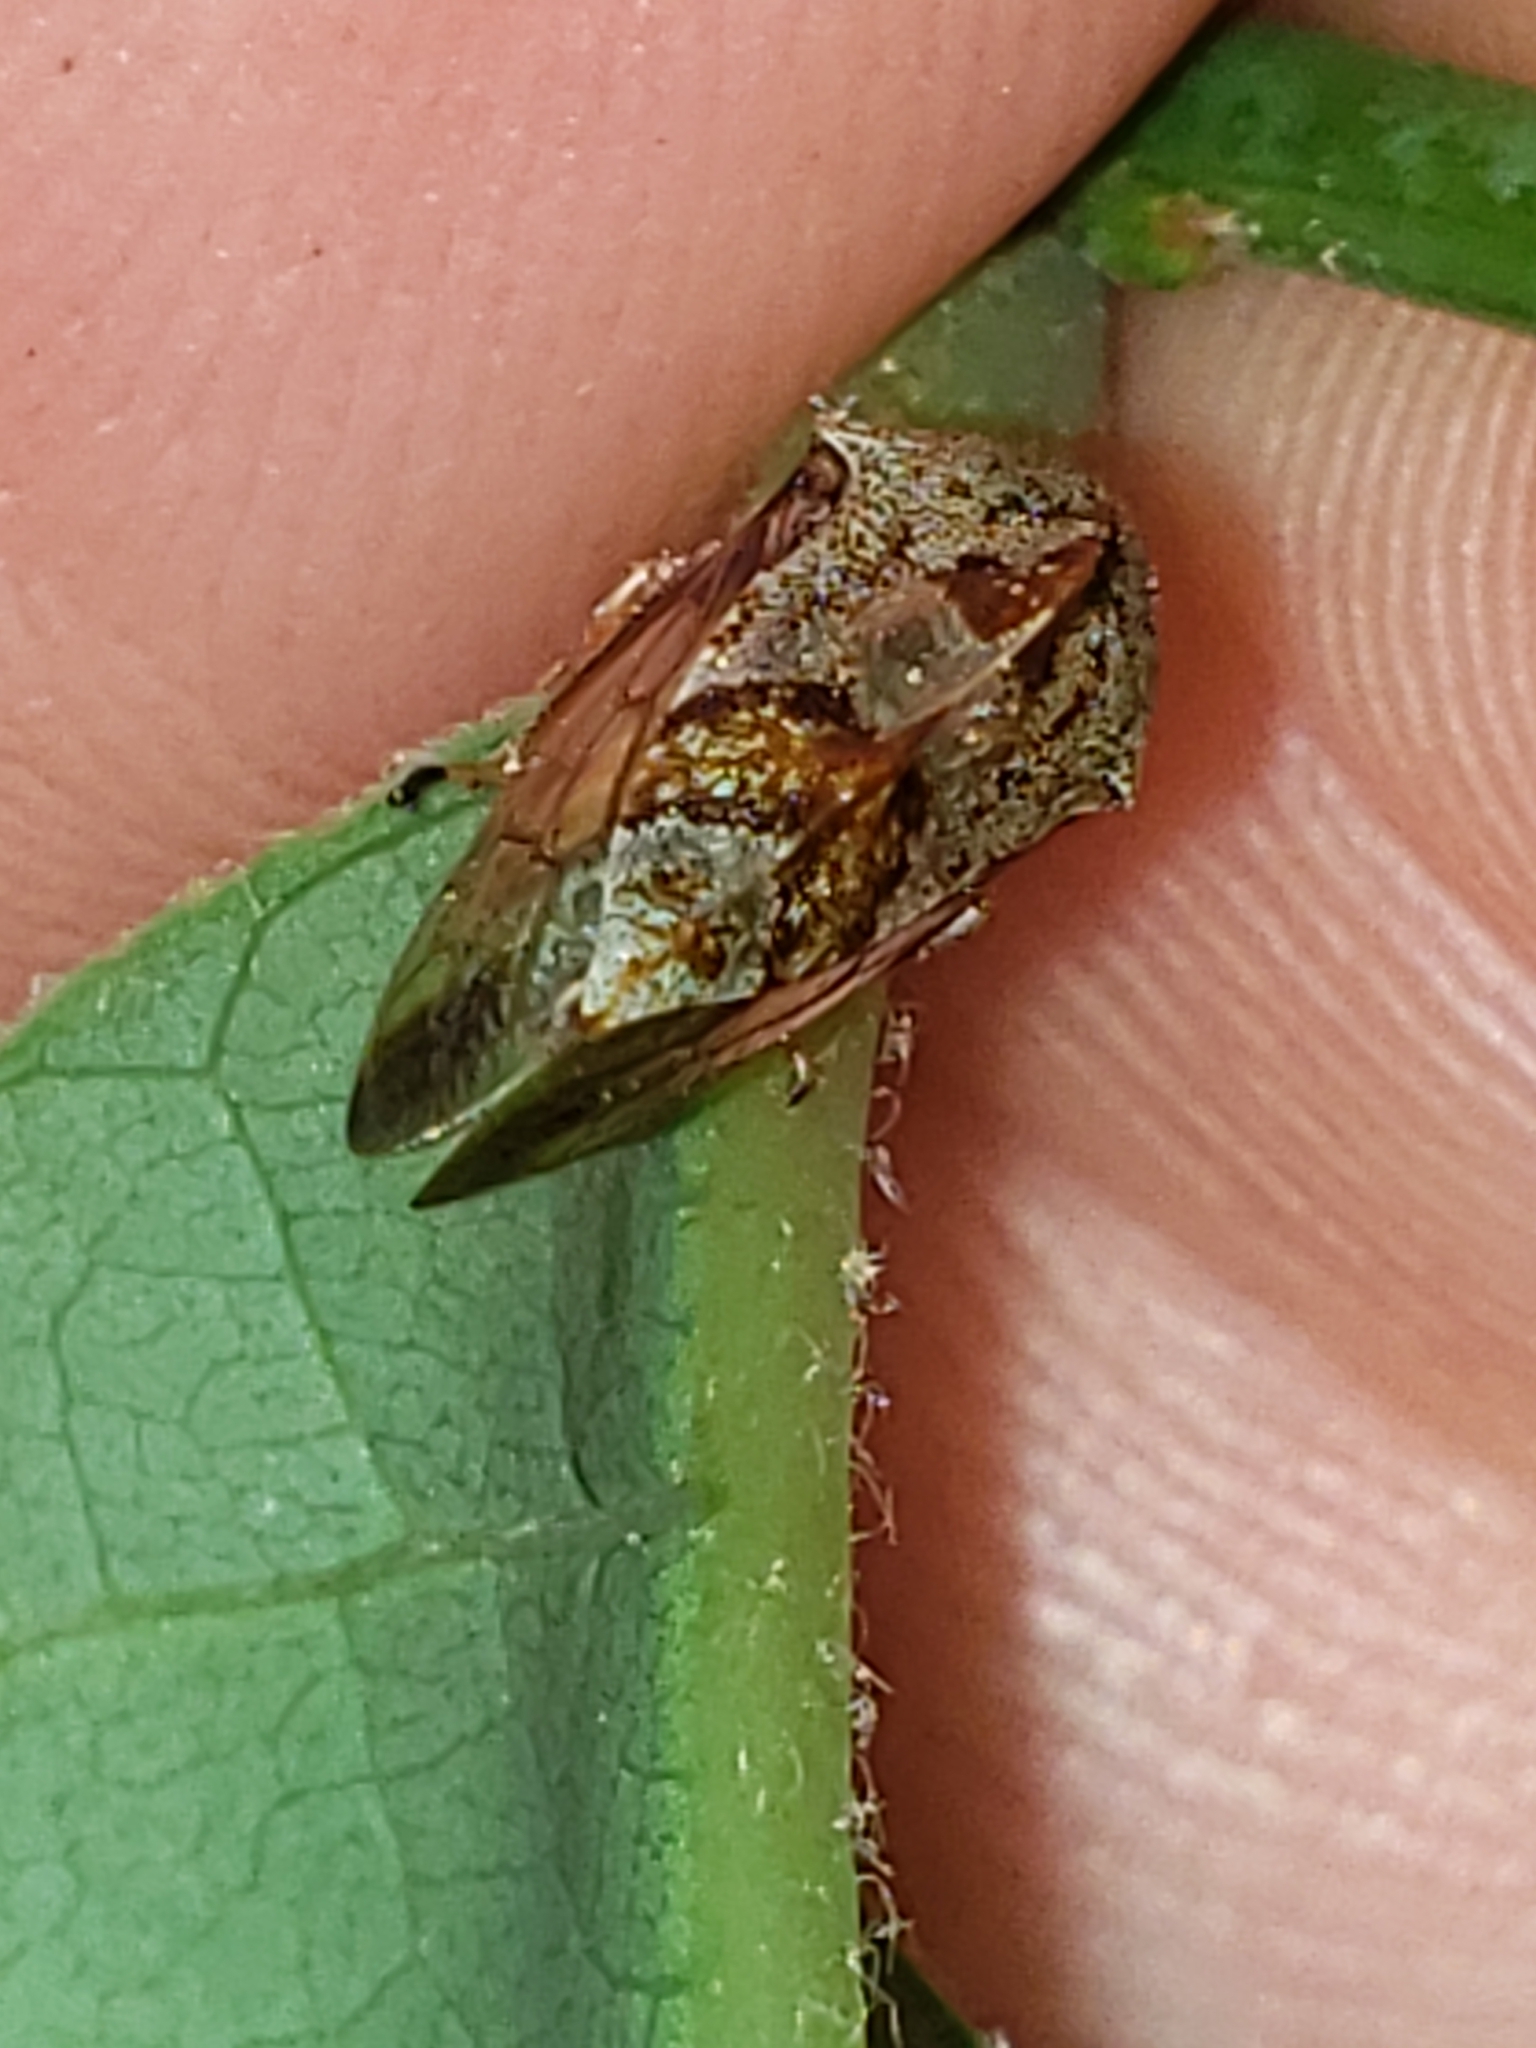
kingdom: Animalia
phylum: Arthropoda
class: Insecta
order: Hemiptera
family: Membracidae
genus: Cyrtolobus
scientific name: Cyrtolobus tuberosa
